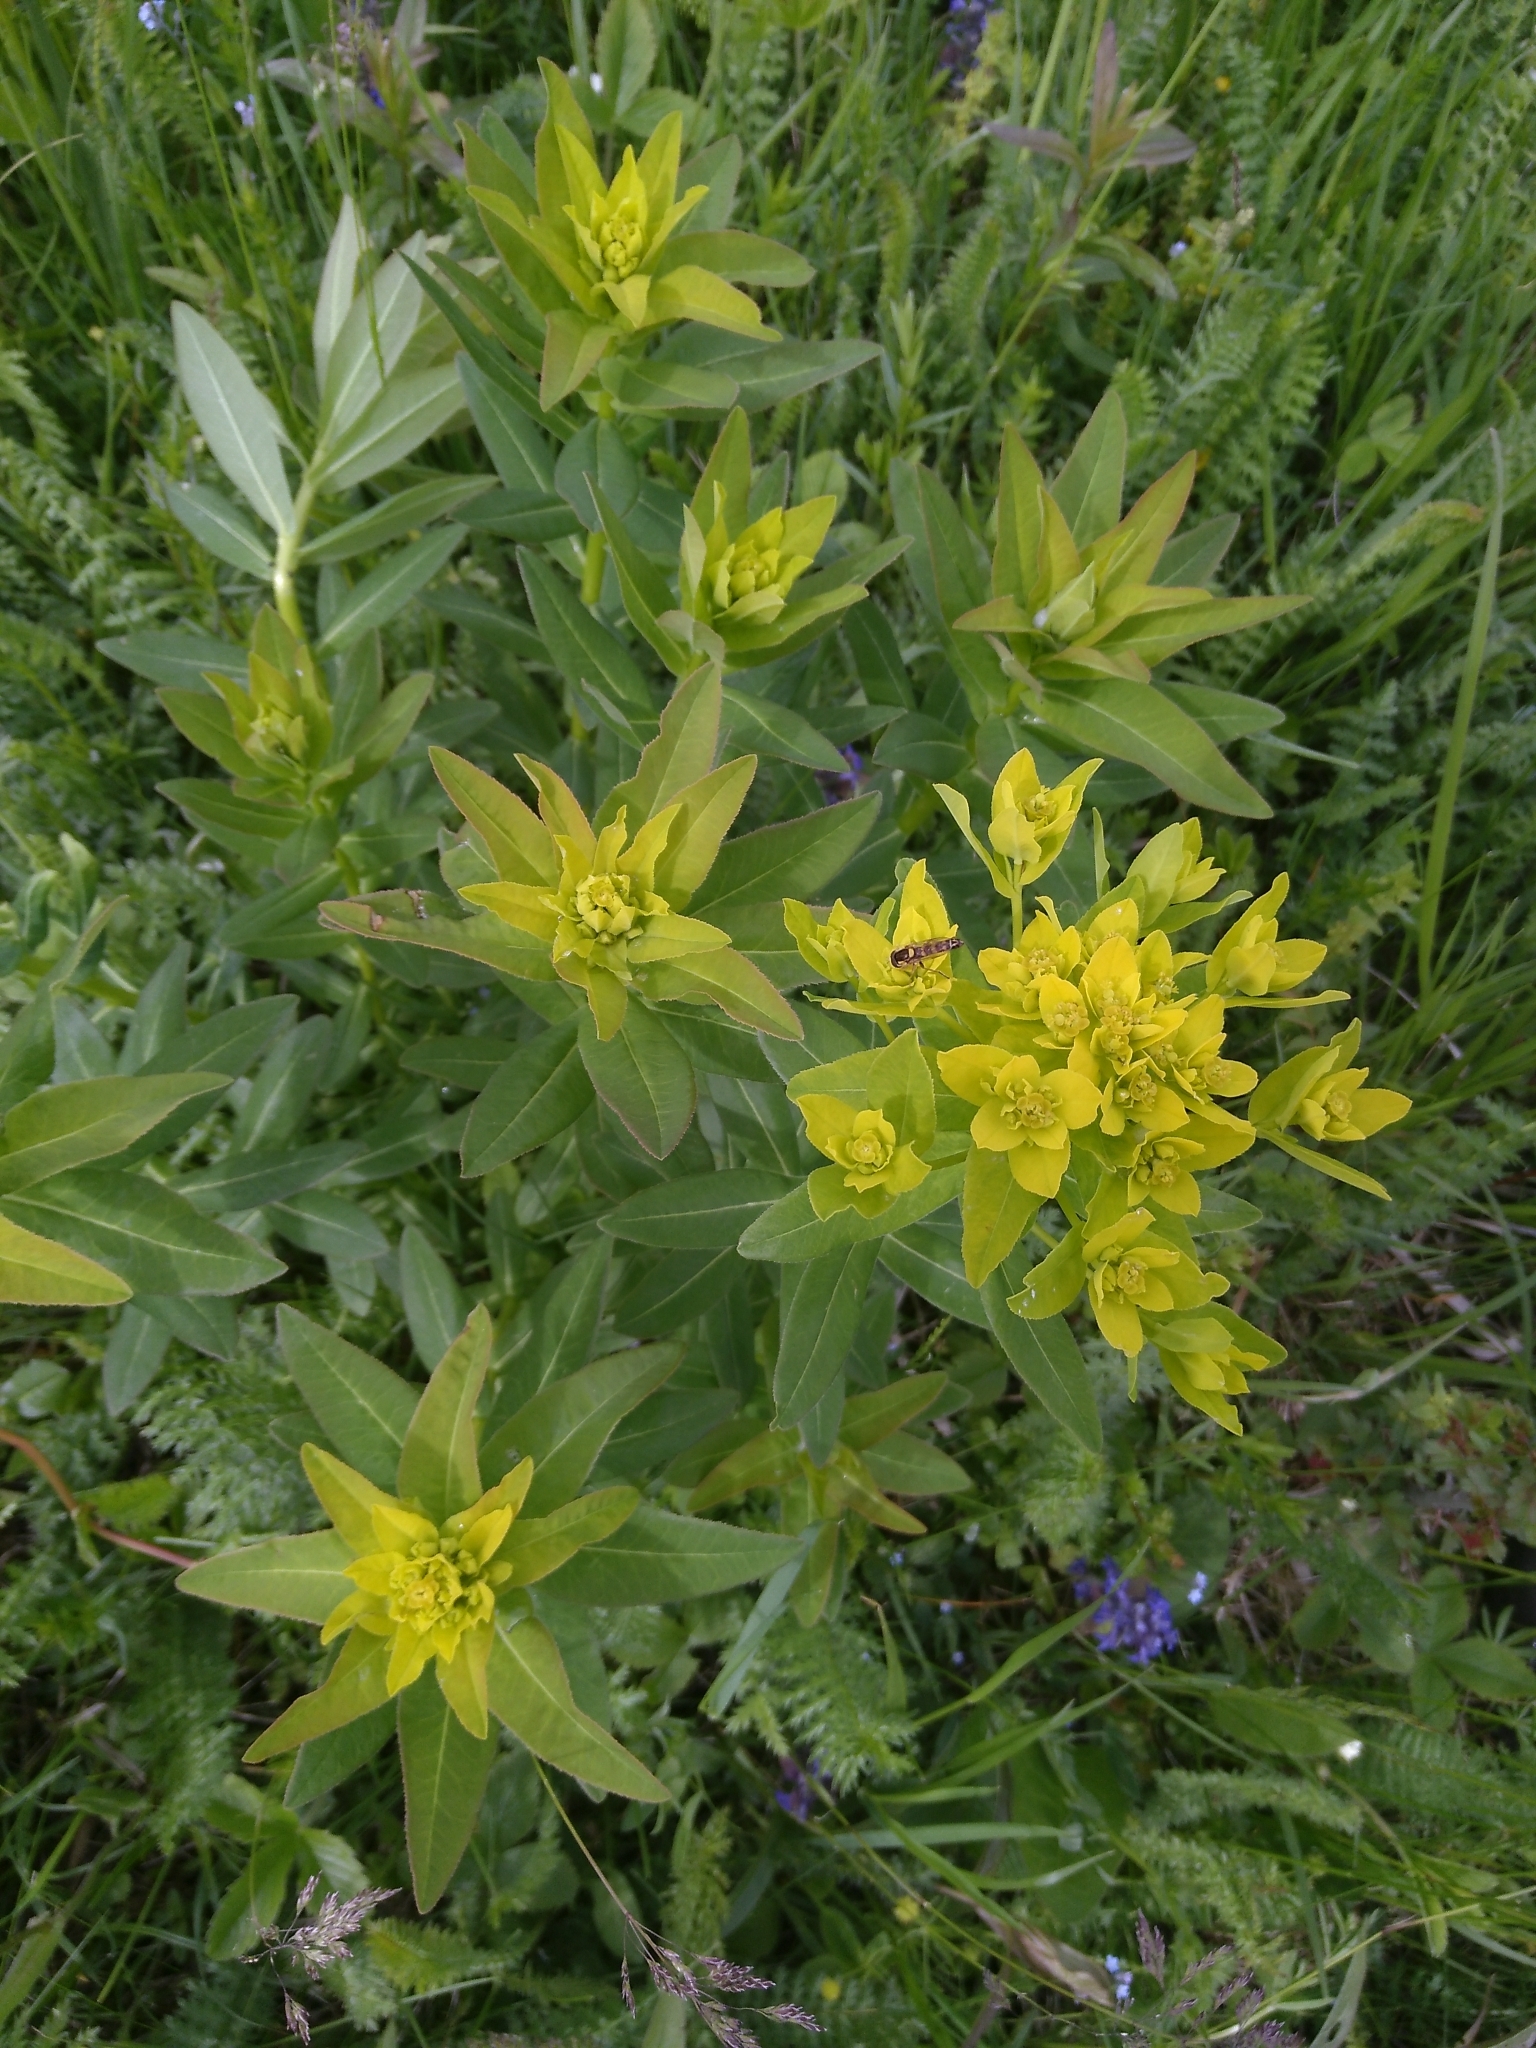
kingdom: Plantae
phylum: Tracheophyta
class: Magnoliopsida
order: Malpighiales
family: Euphorbiaceae
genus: Euphorbia
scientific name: Euphorbia illirica
